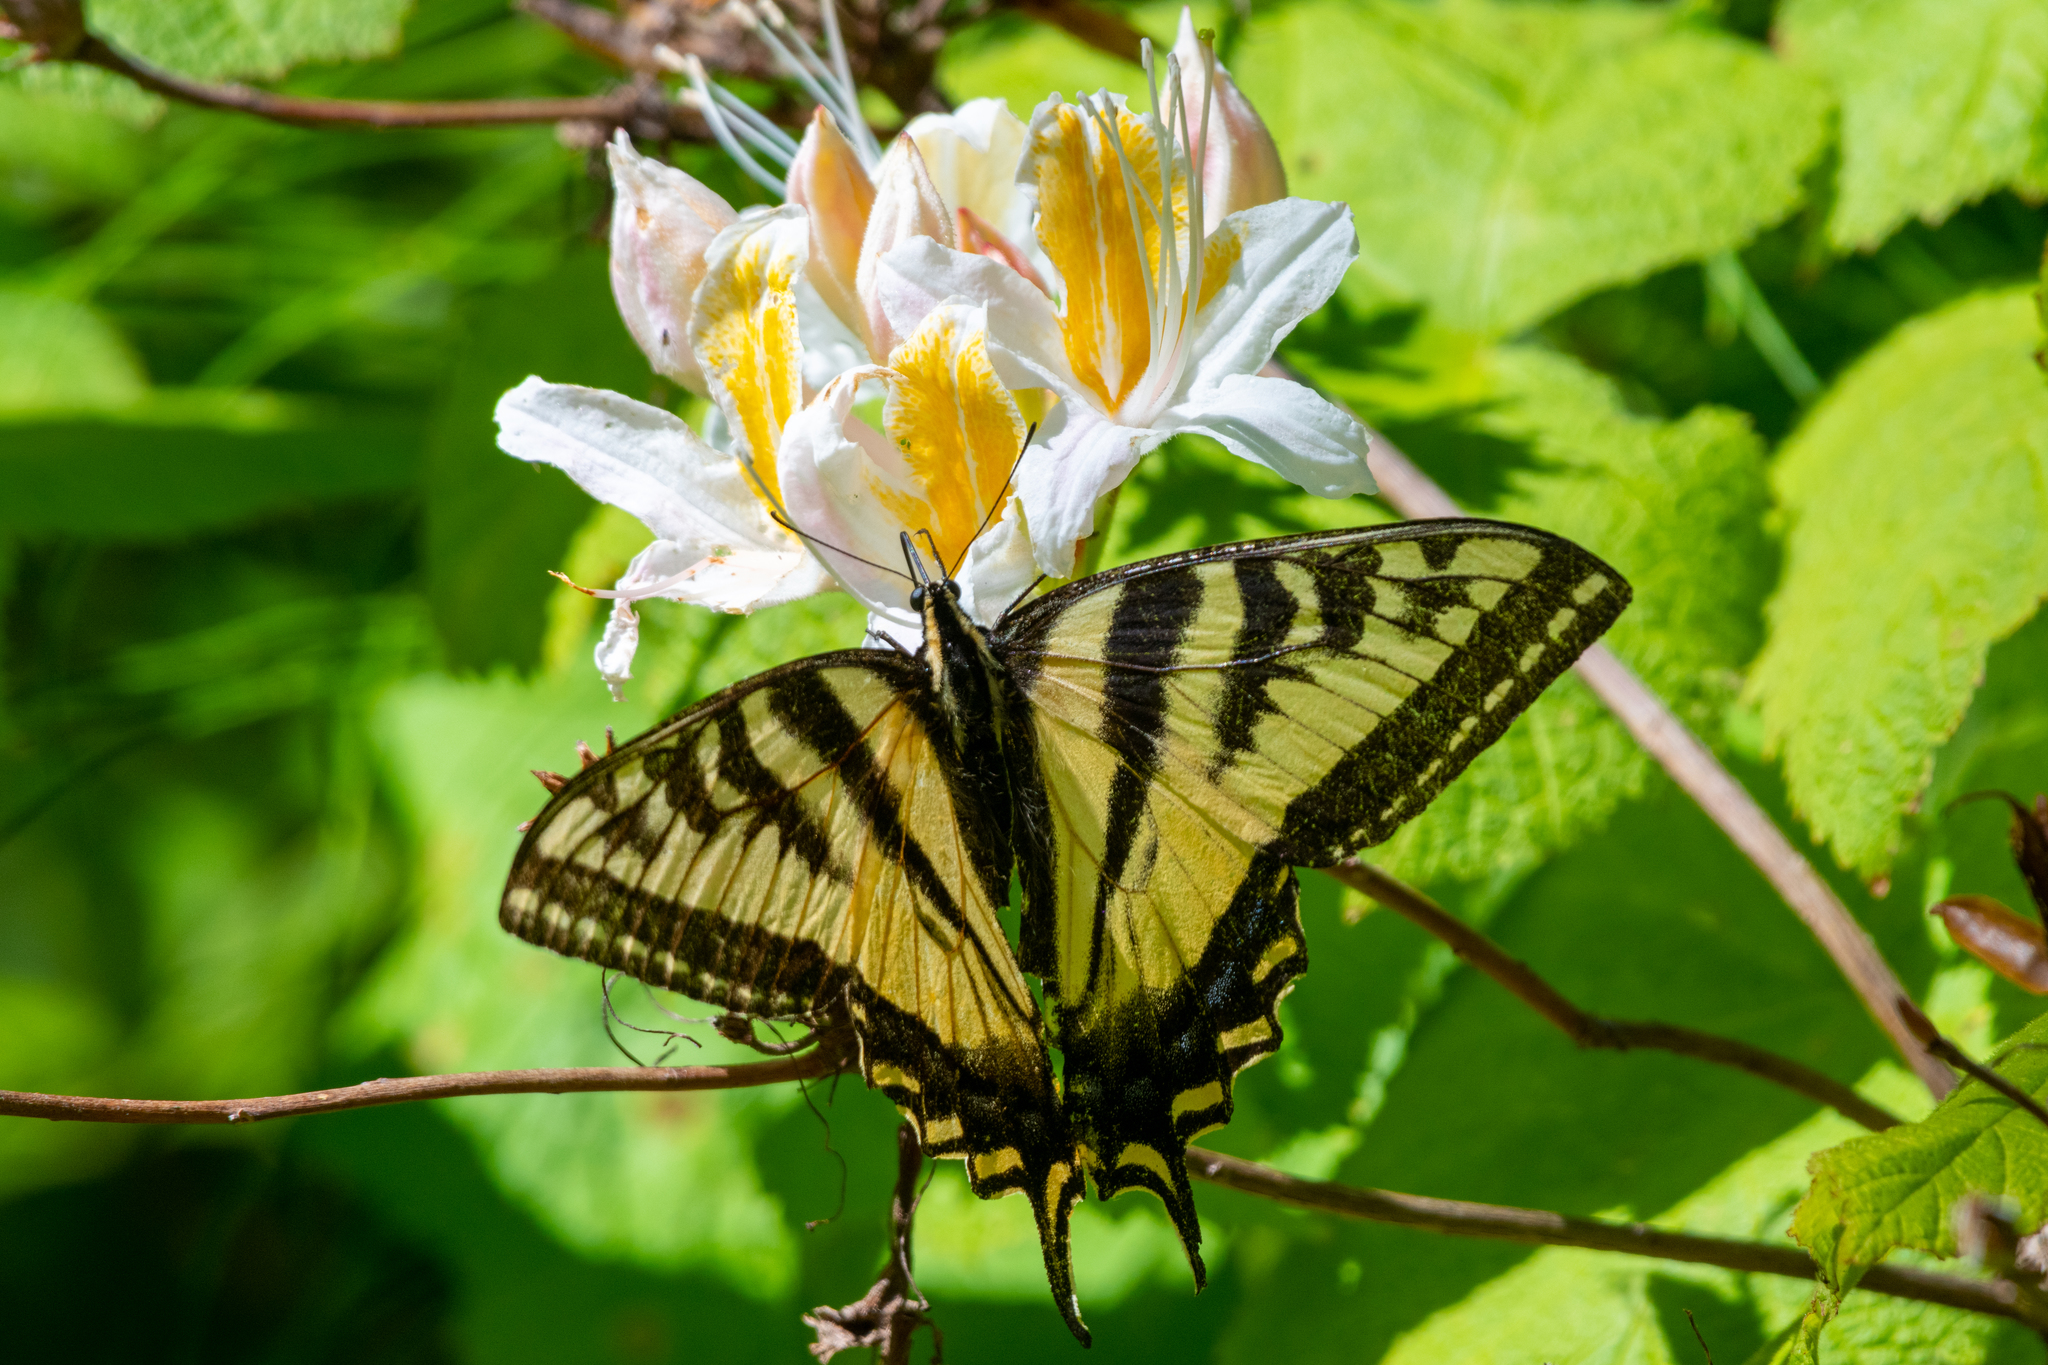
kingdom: Animalia
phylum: Arthropoda
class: Insecta
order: Lepidoptera
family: Papilionidae
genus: Papilio
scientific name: Papilio rutulus
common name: Western tiger swallowtail
